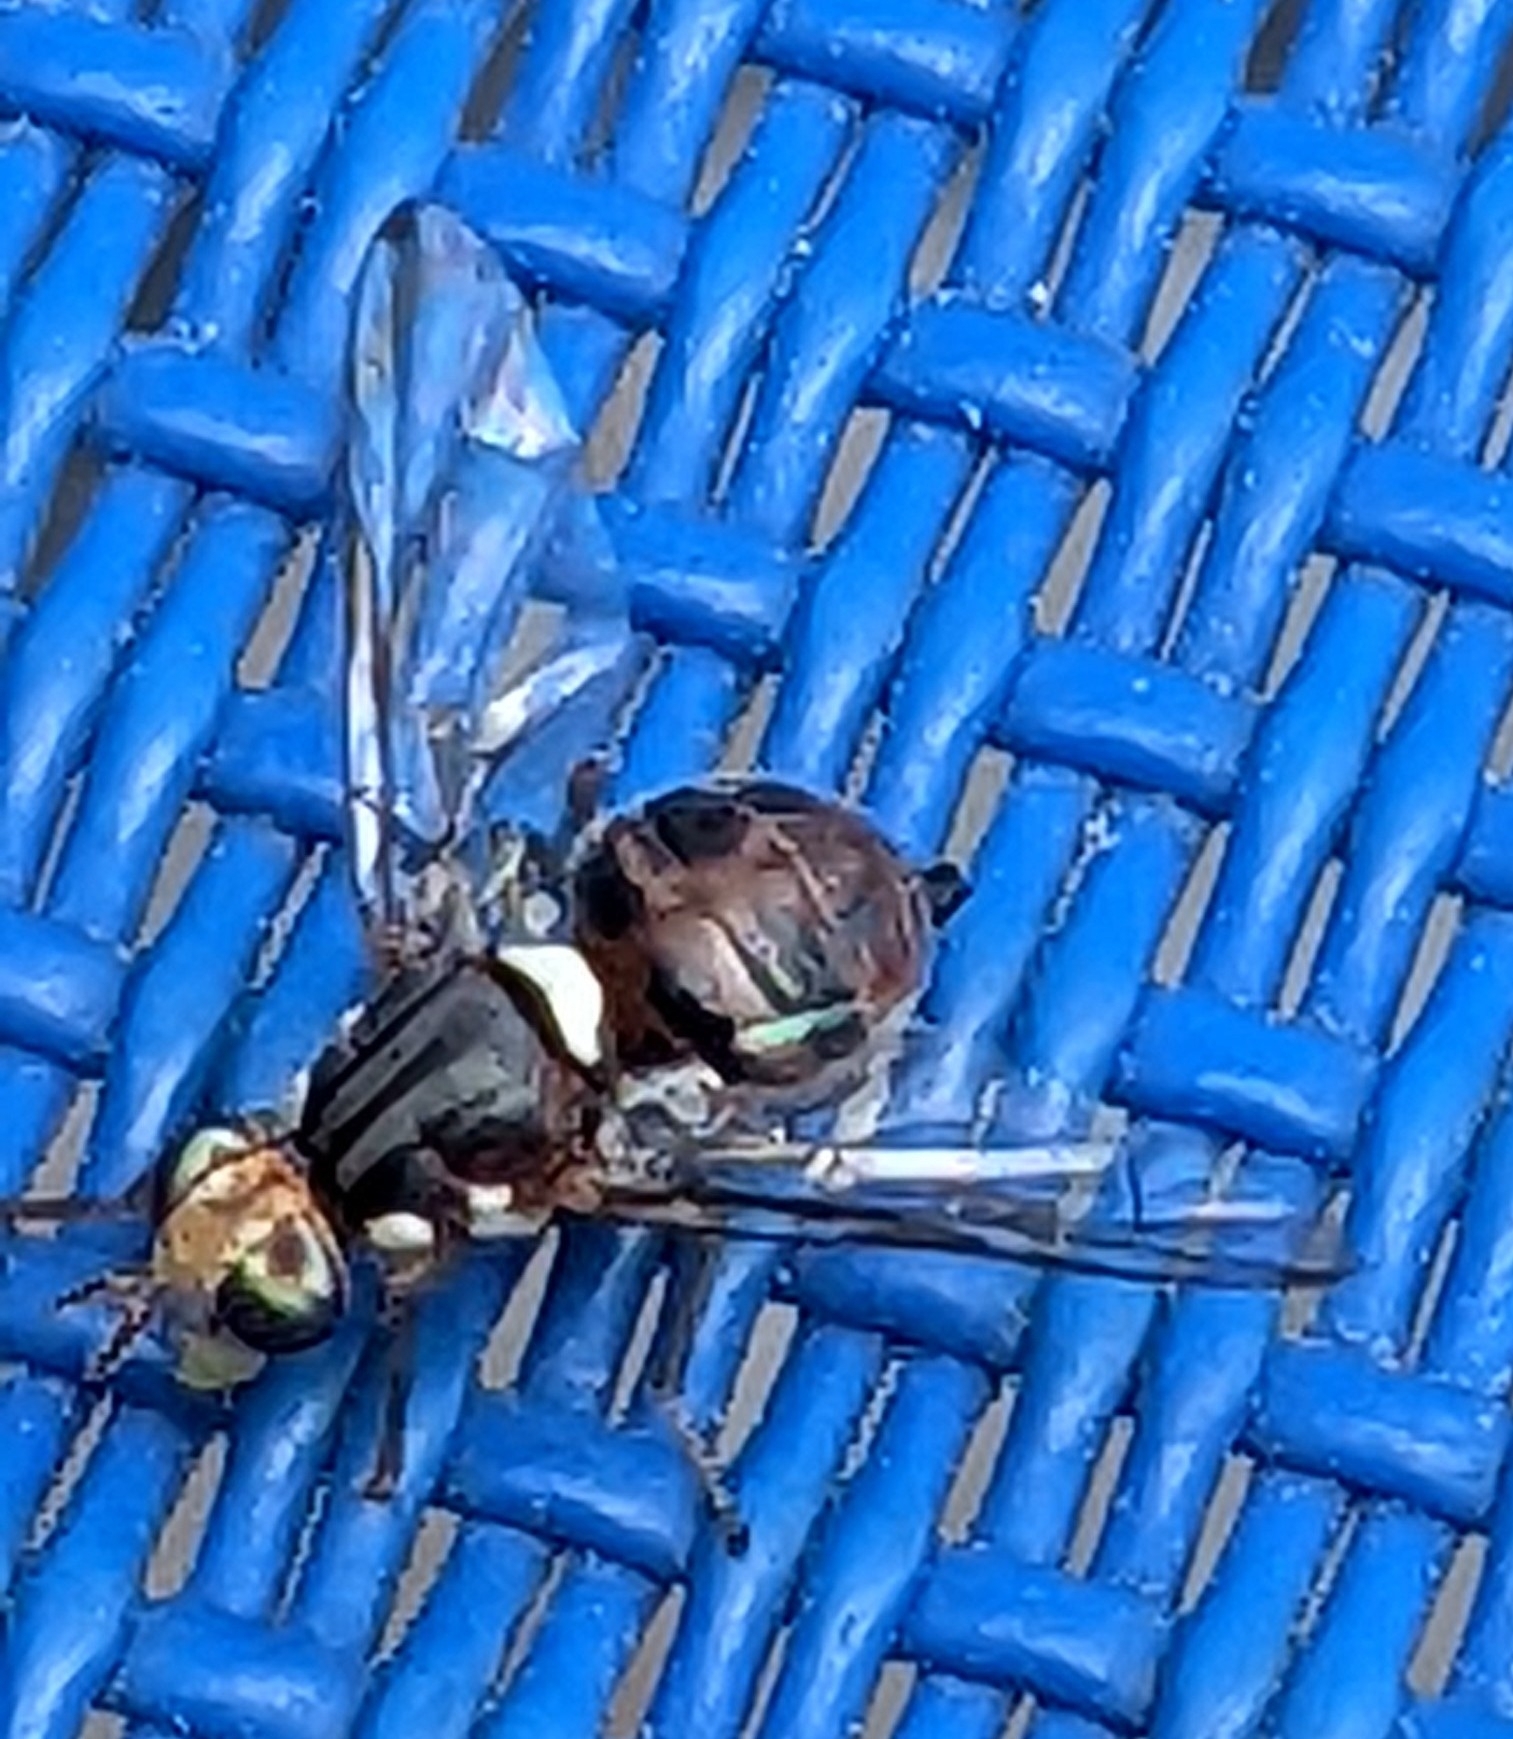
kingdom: Animalia
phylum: Arthropoda
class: Insecta
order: Diptera
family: Tephritidae
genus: Bactrocera
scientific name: Bactrocera oleae
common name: Olive fruit fly
